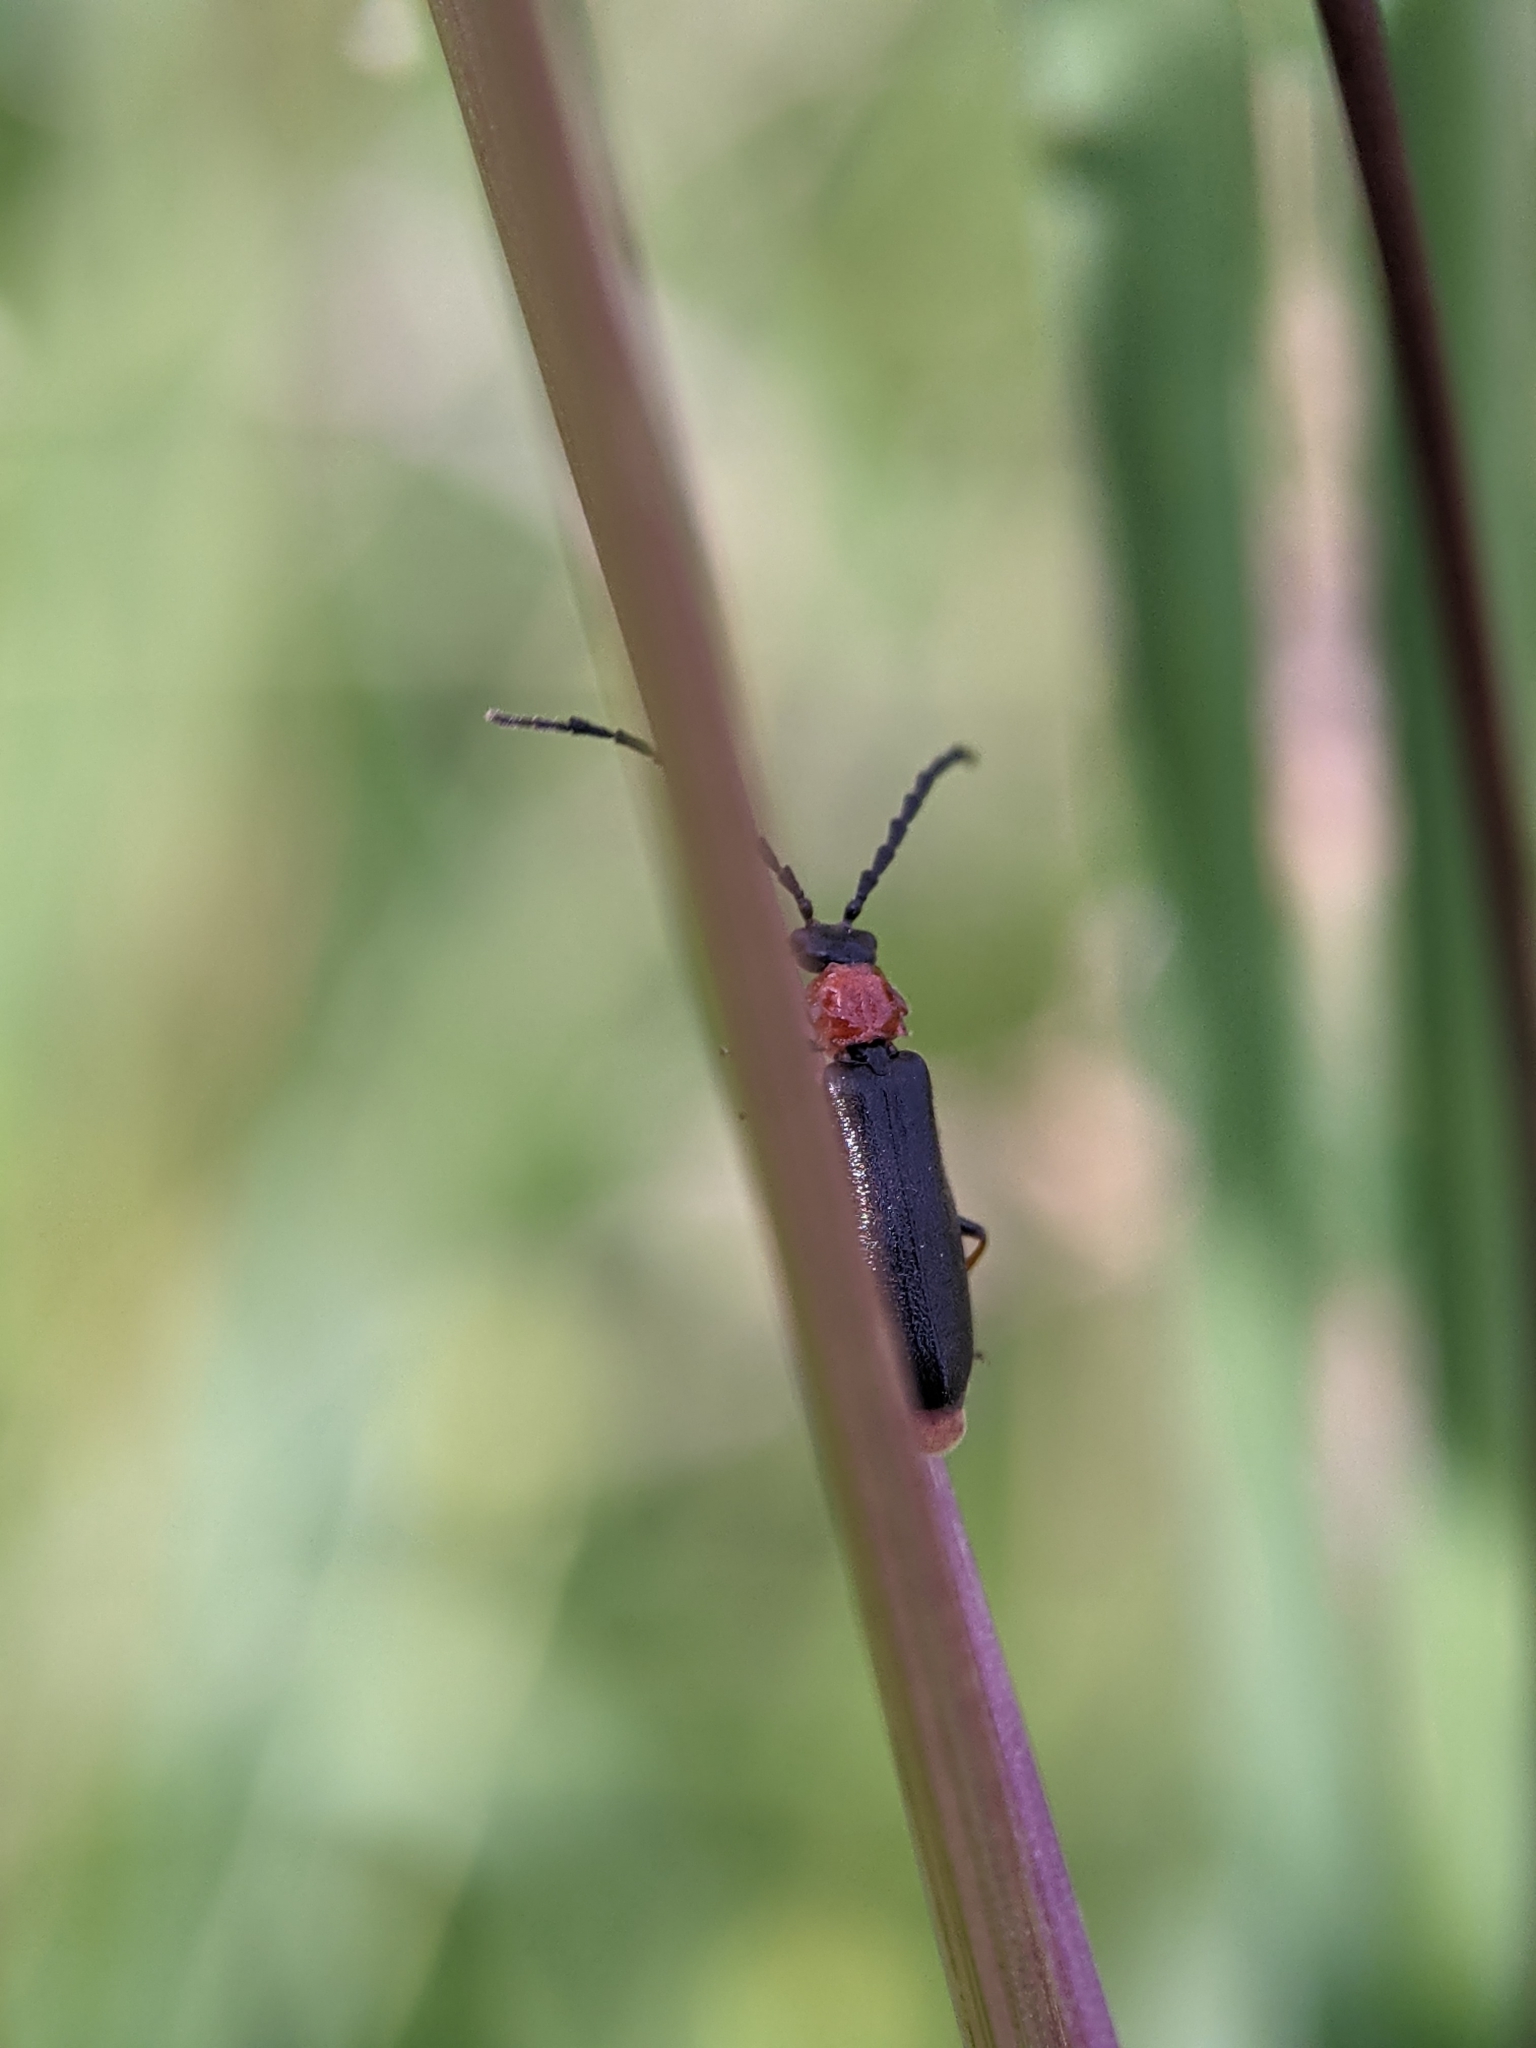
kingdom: Animalia
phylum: Arthropoda
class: Insecta
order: Coleoptera
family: Cantharidae
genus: Crudosilis
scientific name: Crudosilis ruficollis
